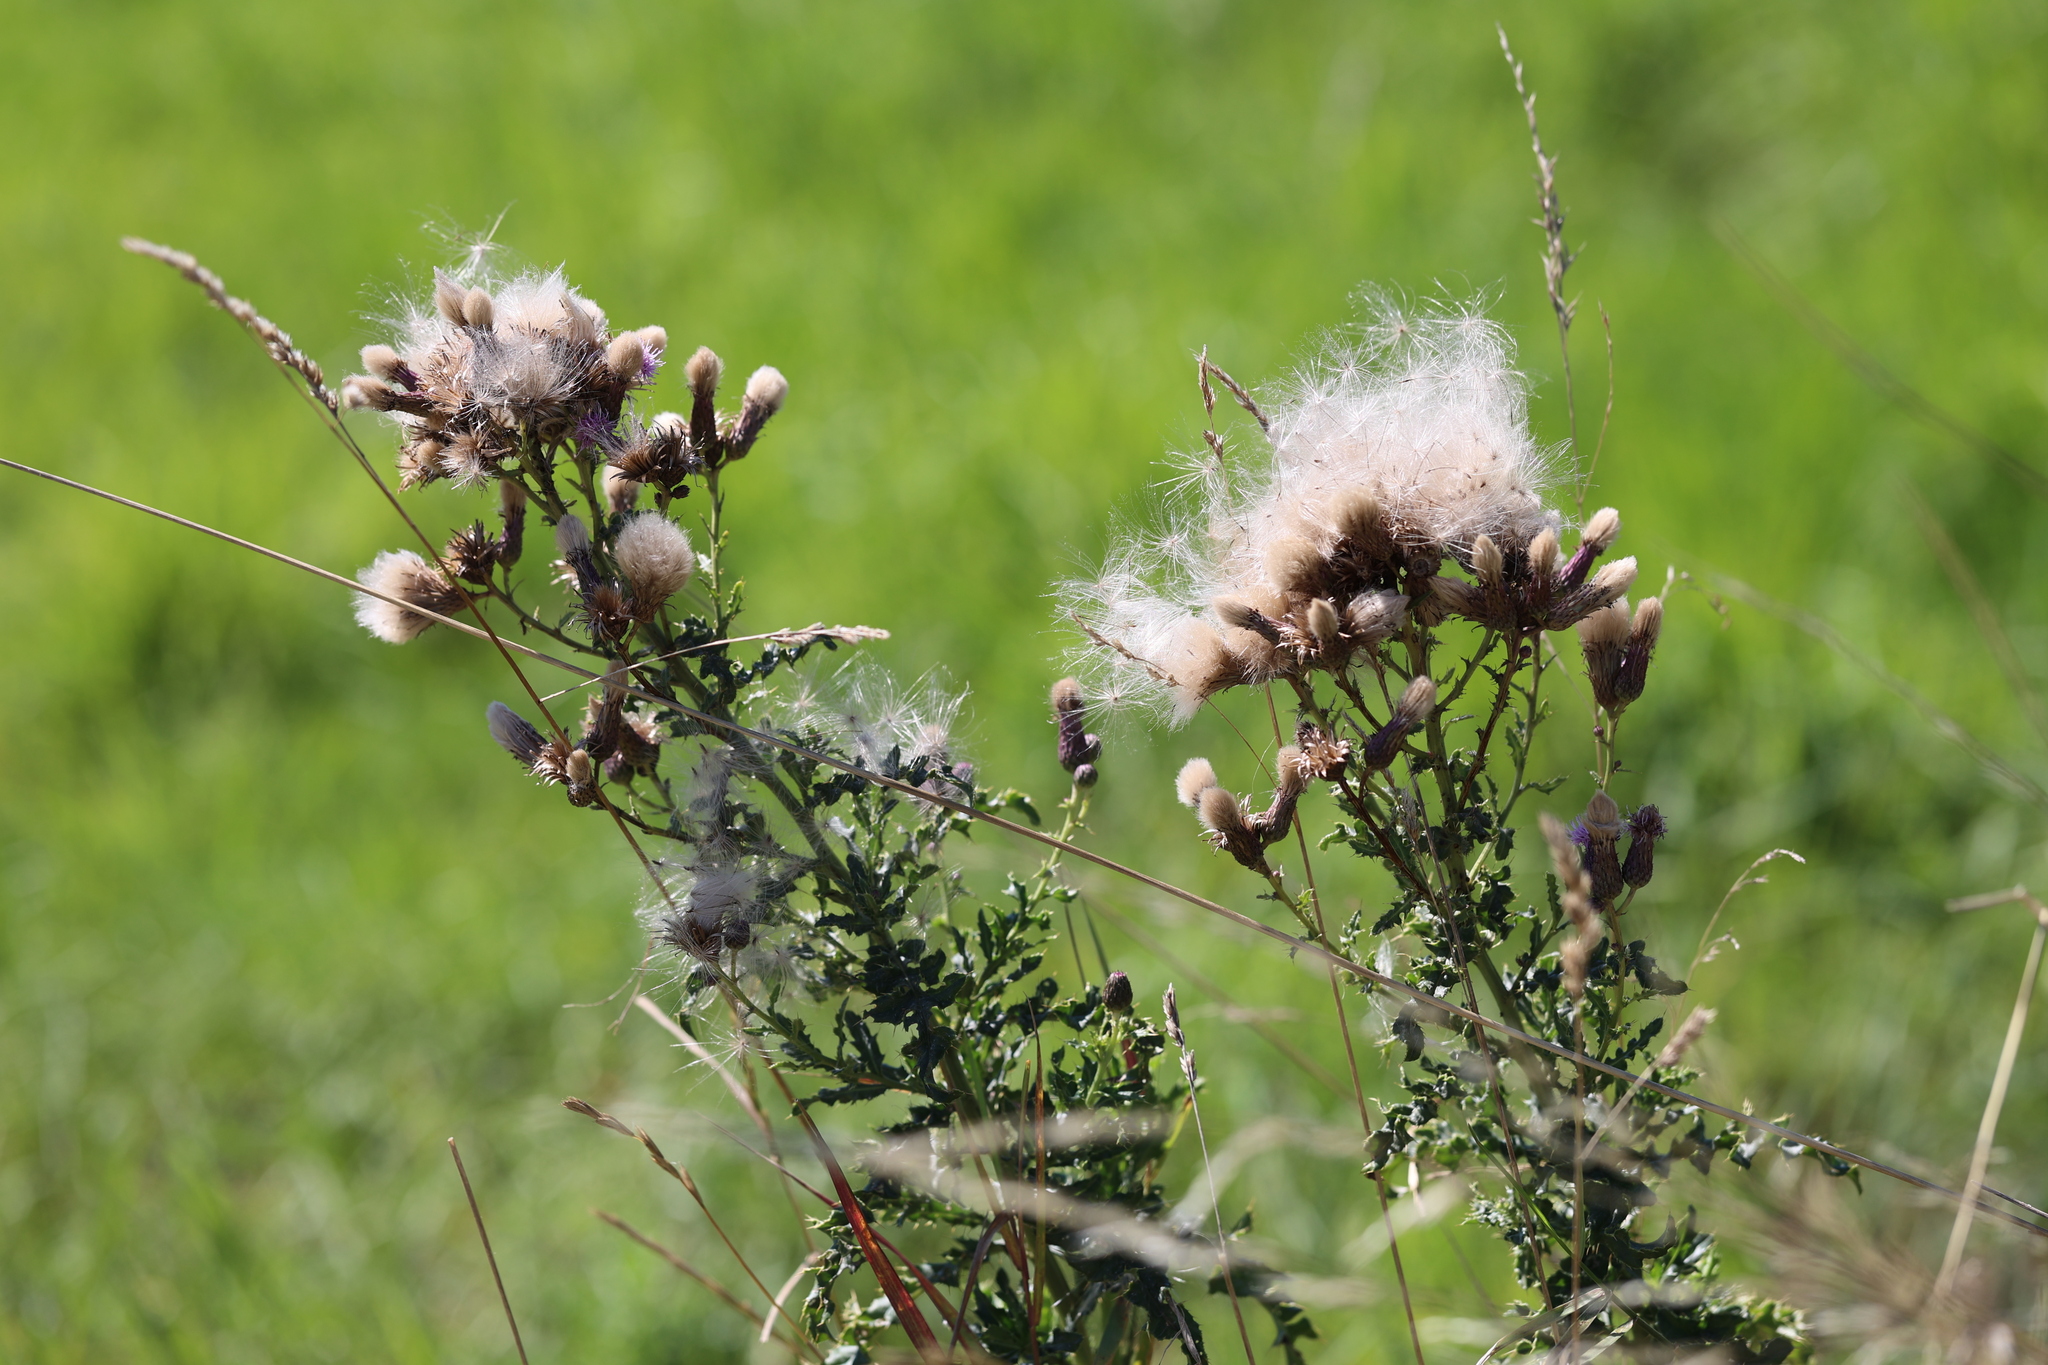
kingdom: Plantae
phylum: Tracheophyta
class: Magnoliopsida
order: Asterales
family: Asteraceae
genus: Cirsium
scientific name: Cirsium arvense
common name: Creeping thistle
